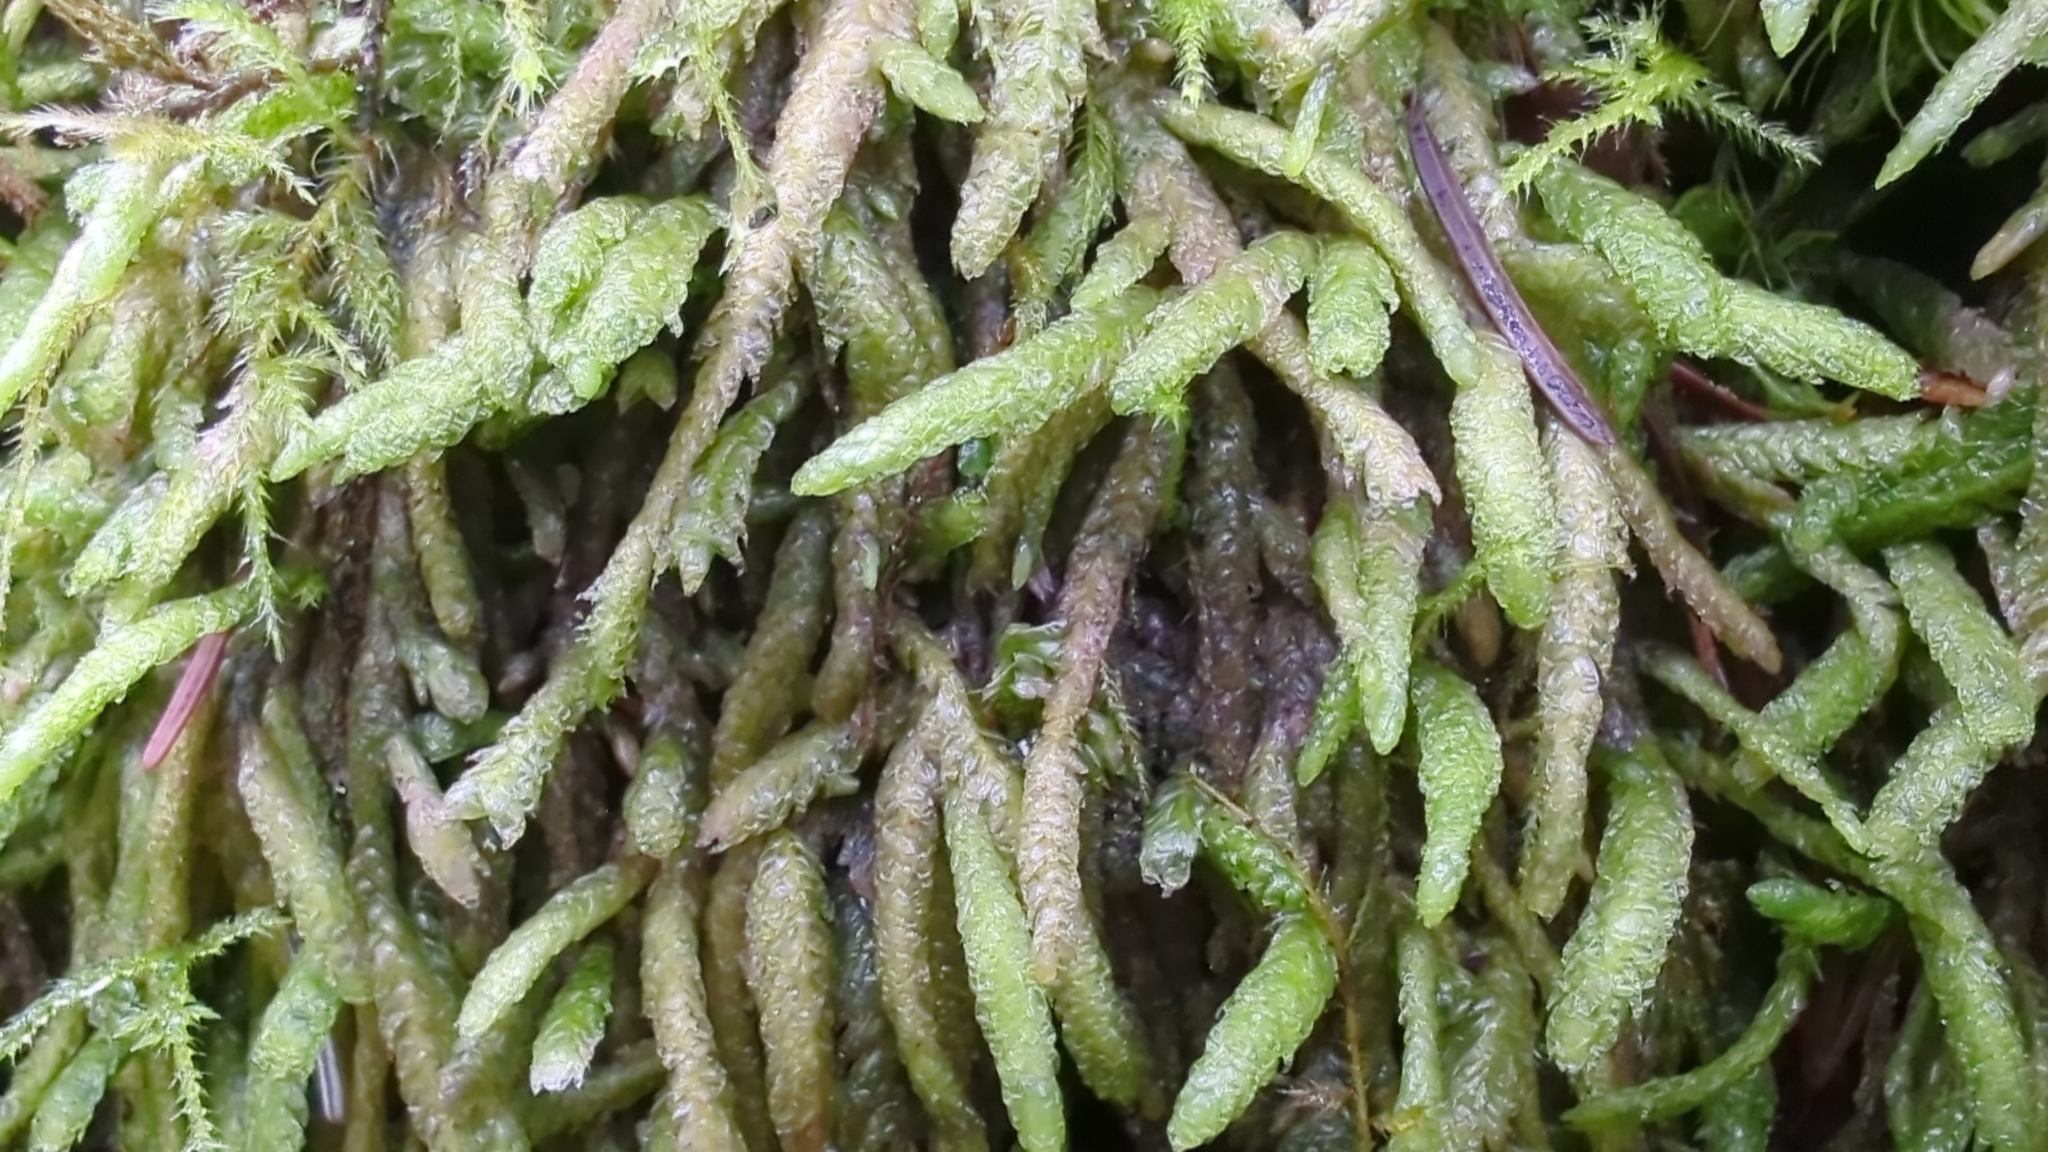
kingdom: Plantae
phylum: Bryophyta
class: Bryopsida
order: Hypnales
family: Plagiotheciaceae
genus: Plagiothecium
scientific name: Plagiothecium undulatum
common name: Waved silk-moss
